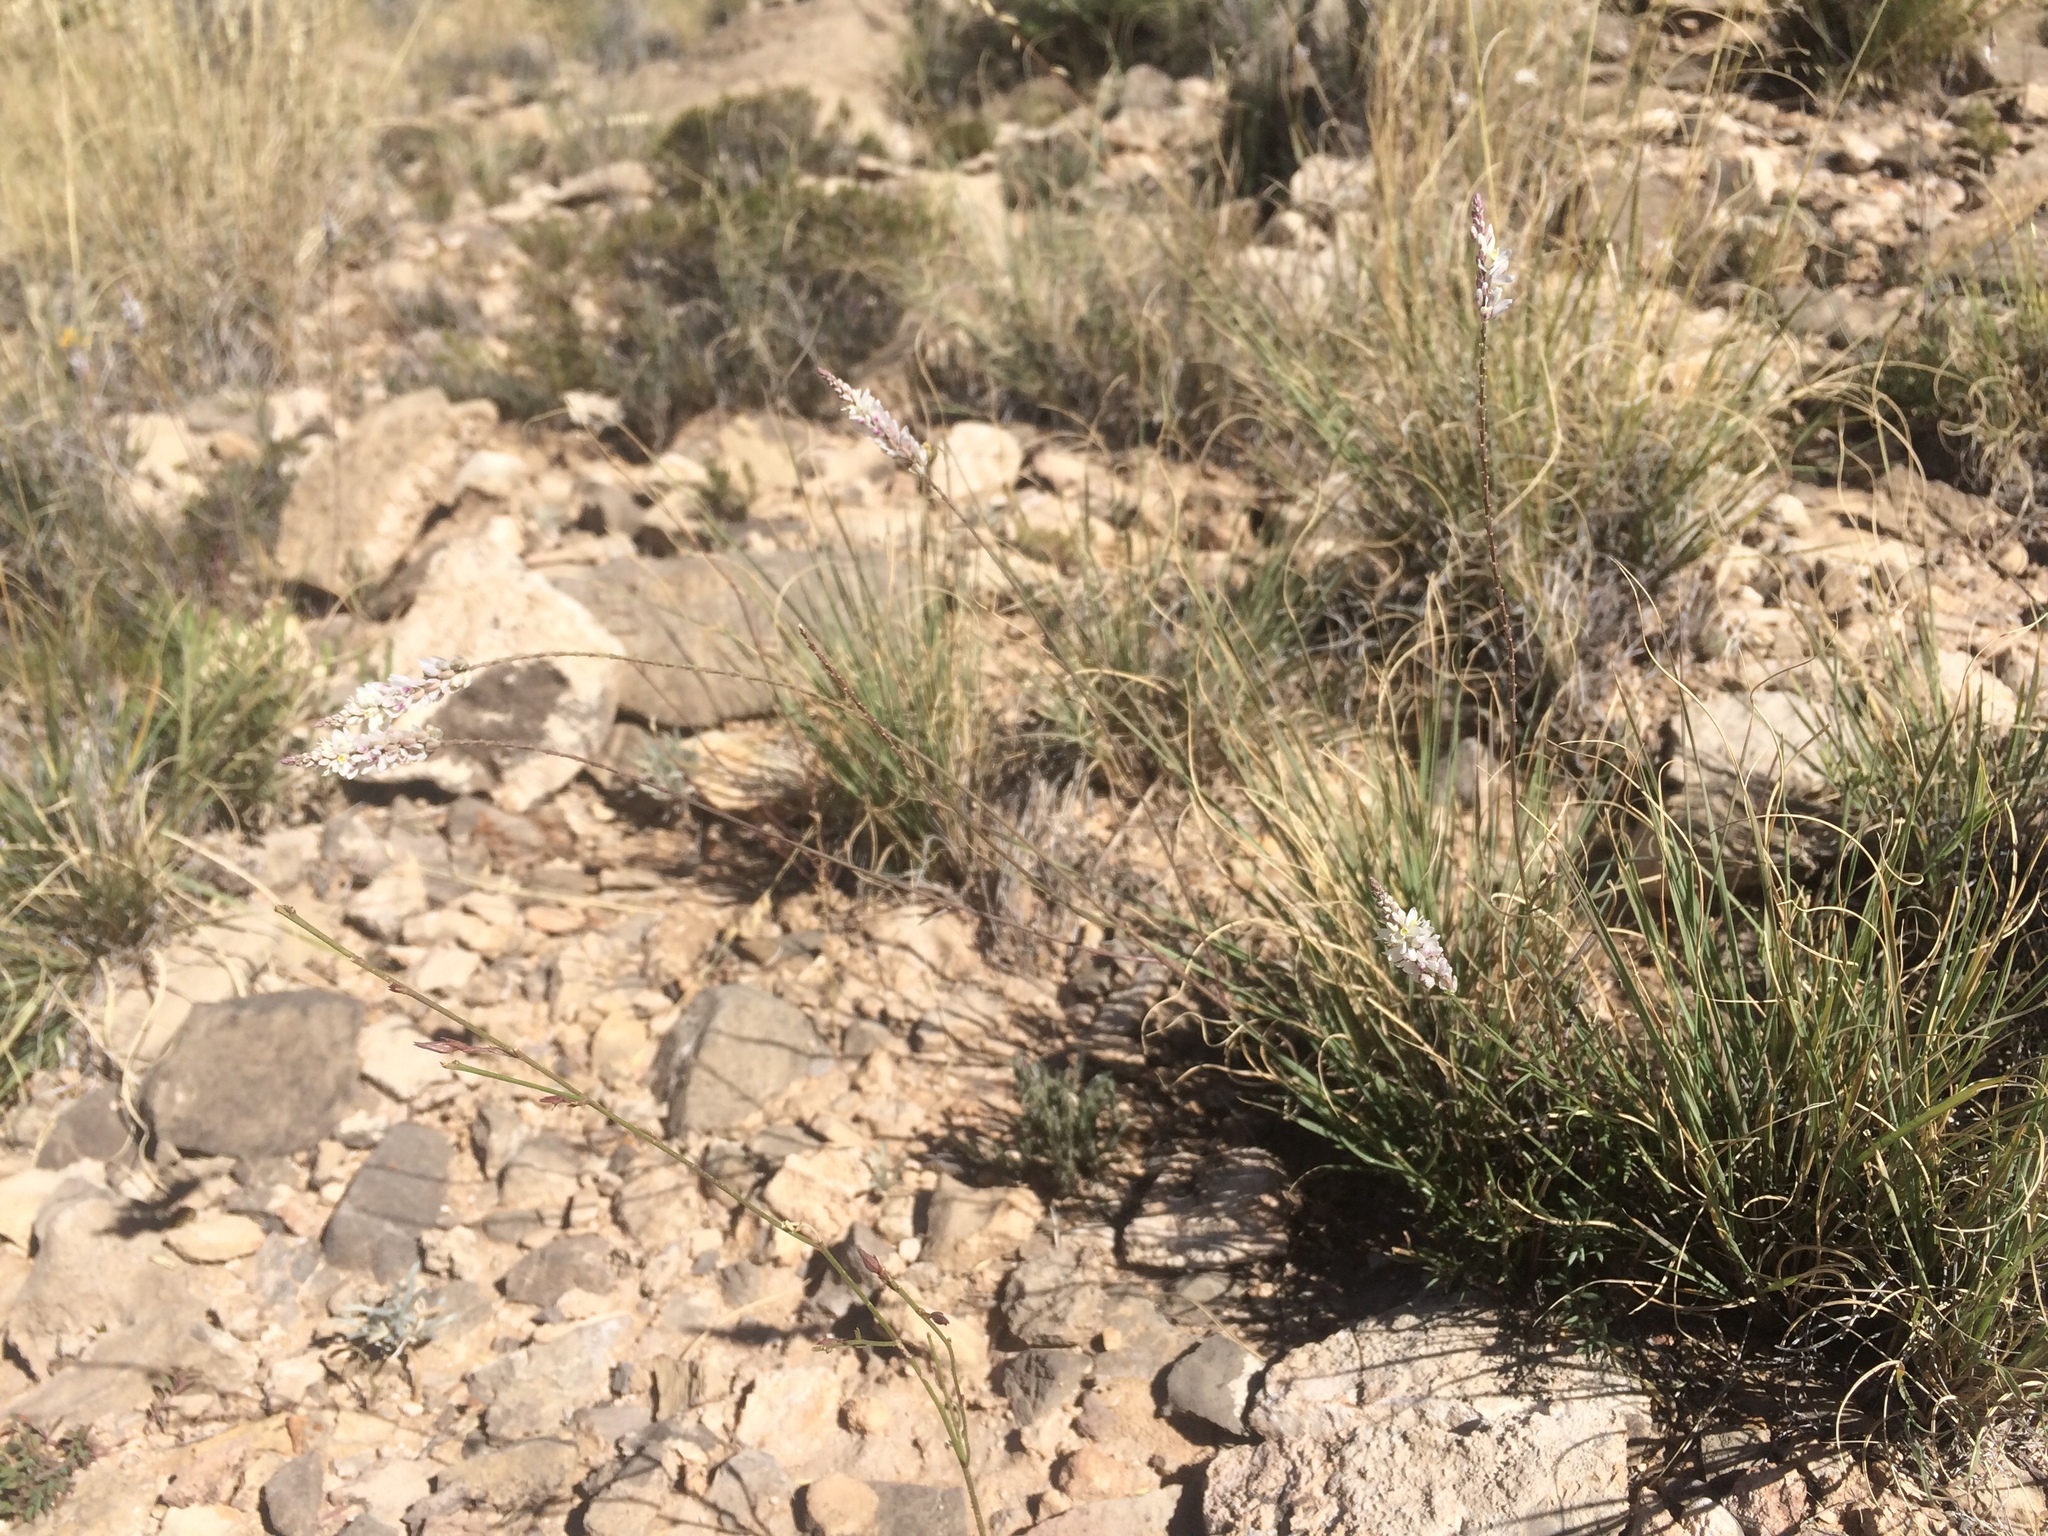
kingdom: Plantae
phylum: Tracheophyta
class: Magnoliopsida
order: Fabales
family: Polygalaceae
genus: Polygala
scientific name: Polygala alba
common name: White milkwort
